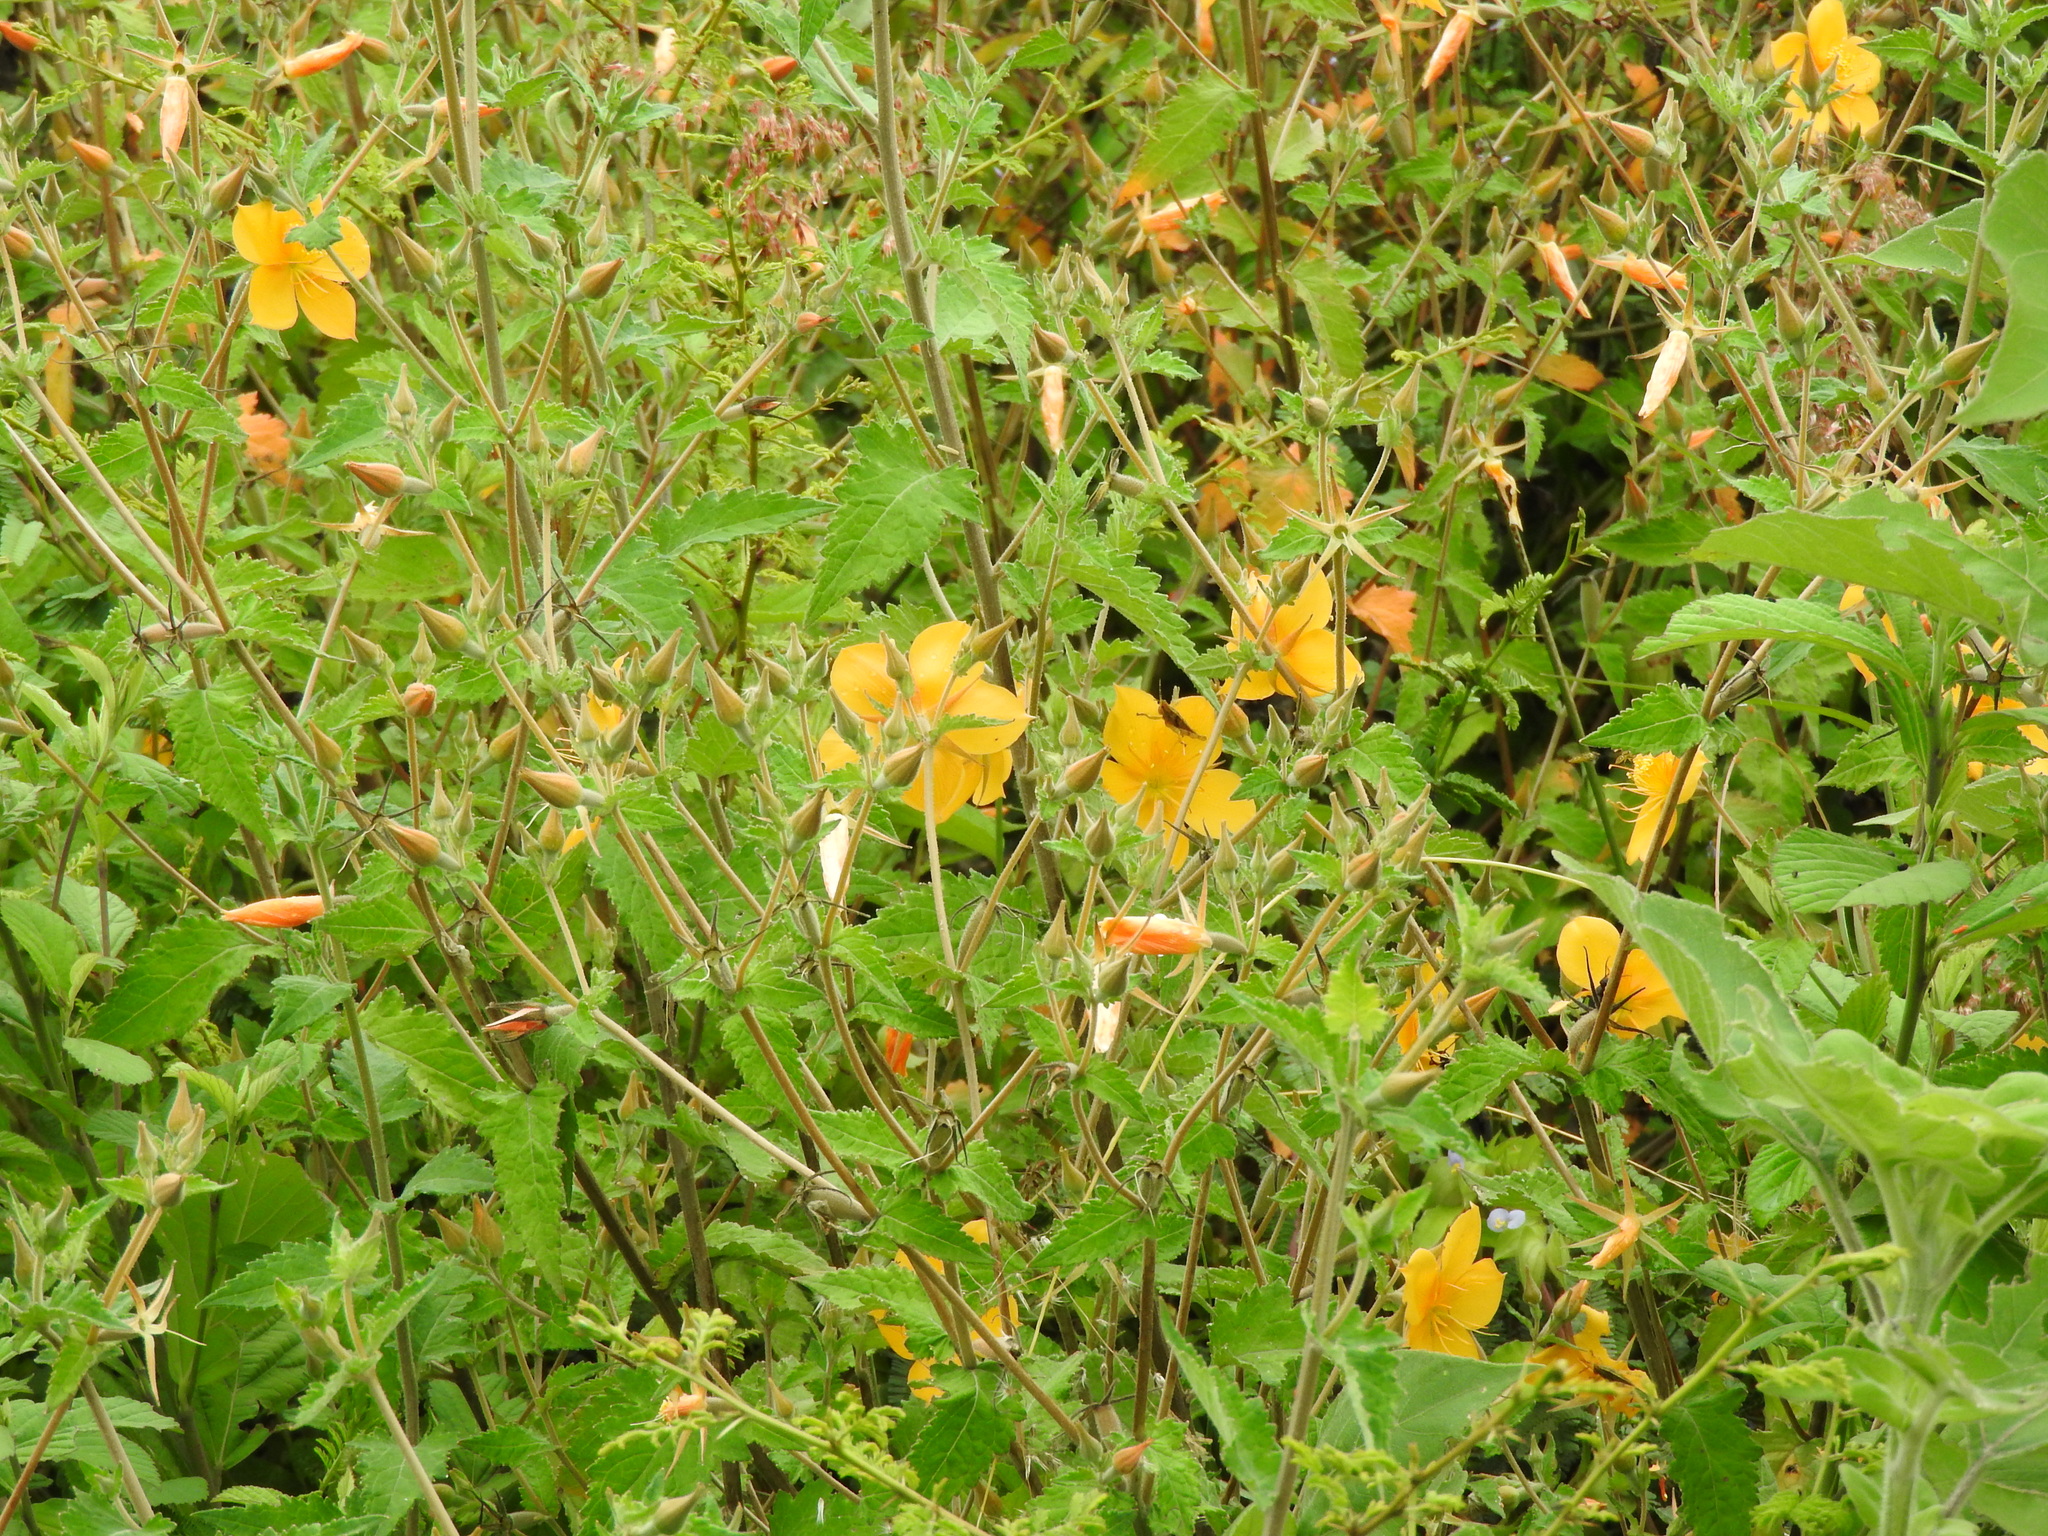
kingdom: Plantae
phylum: Tracheophyta
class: Magnoliopsida
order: Cornales
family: Loasaceae
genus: Mentzelia
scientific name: Mentzelia hispida
